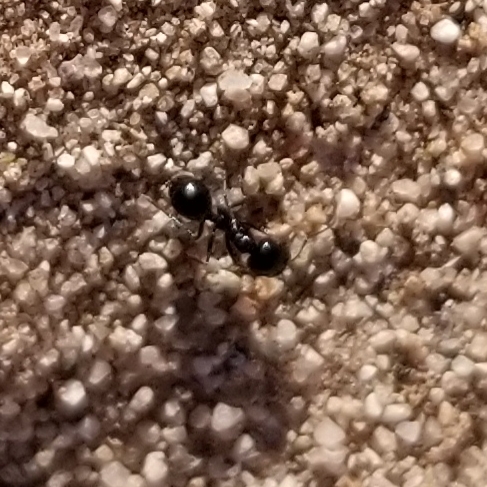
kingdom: Animalia
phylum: Arthropoda
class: Insecta
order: Hymenoptera
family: Formicidae
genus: Messor
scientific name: Messor pergandei
